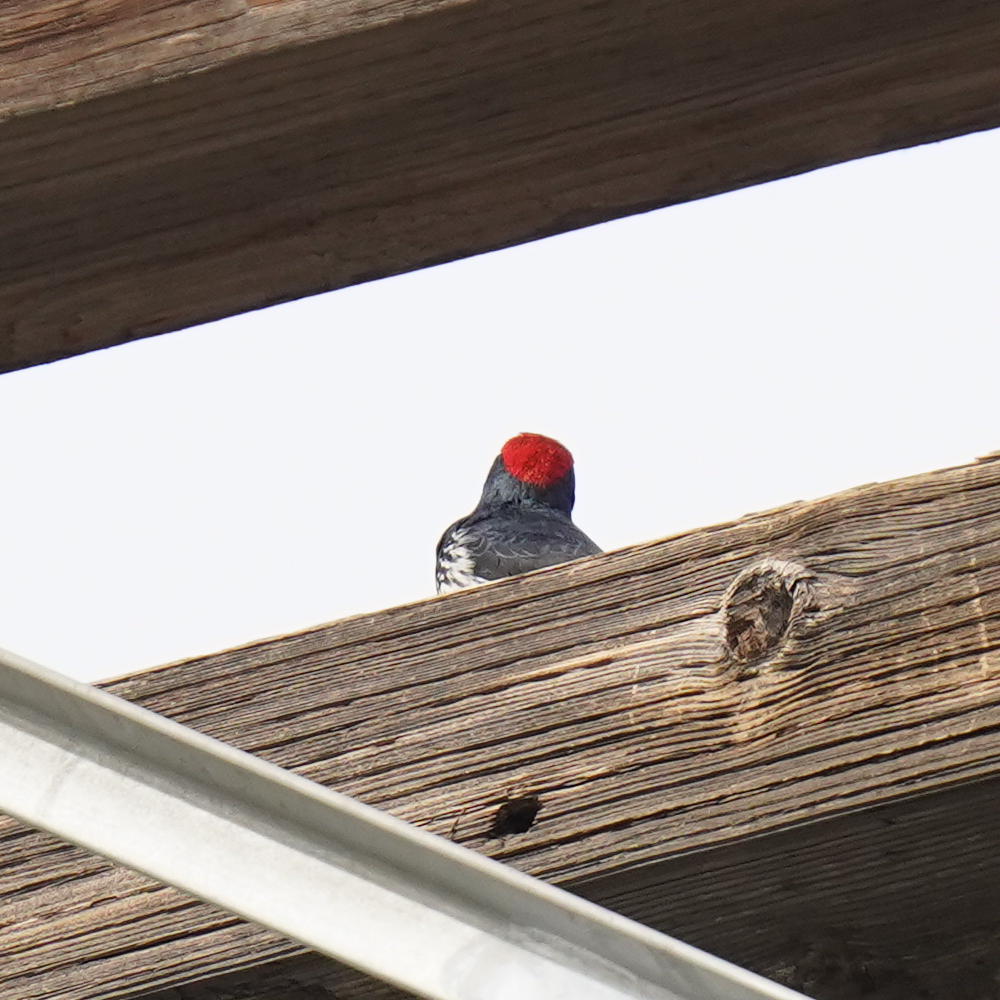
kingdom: Animalia
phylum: Chordata
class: Aves
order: Piciformes
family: Picidae
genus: Melanerpes
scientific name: Melanerpes formicivorus
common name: Acorn woodpecker
